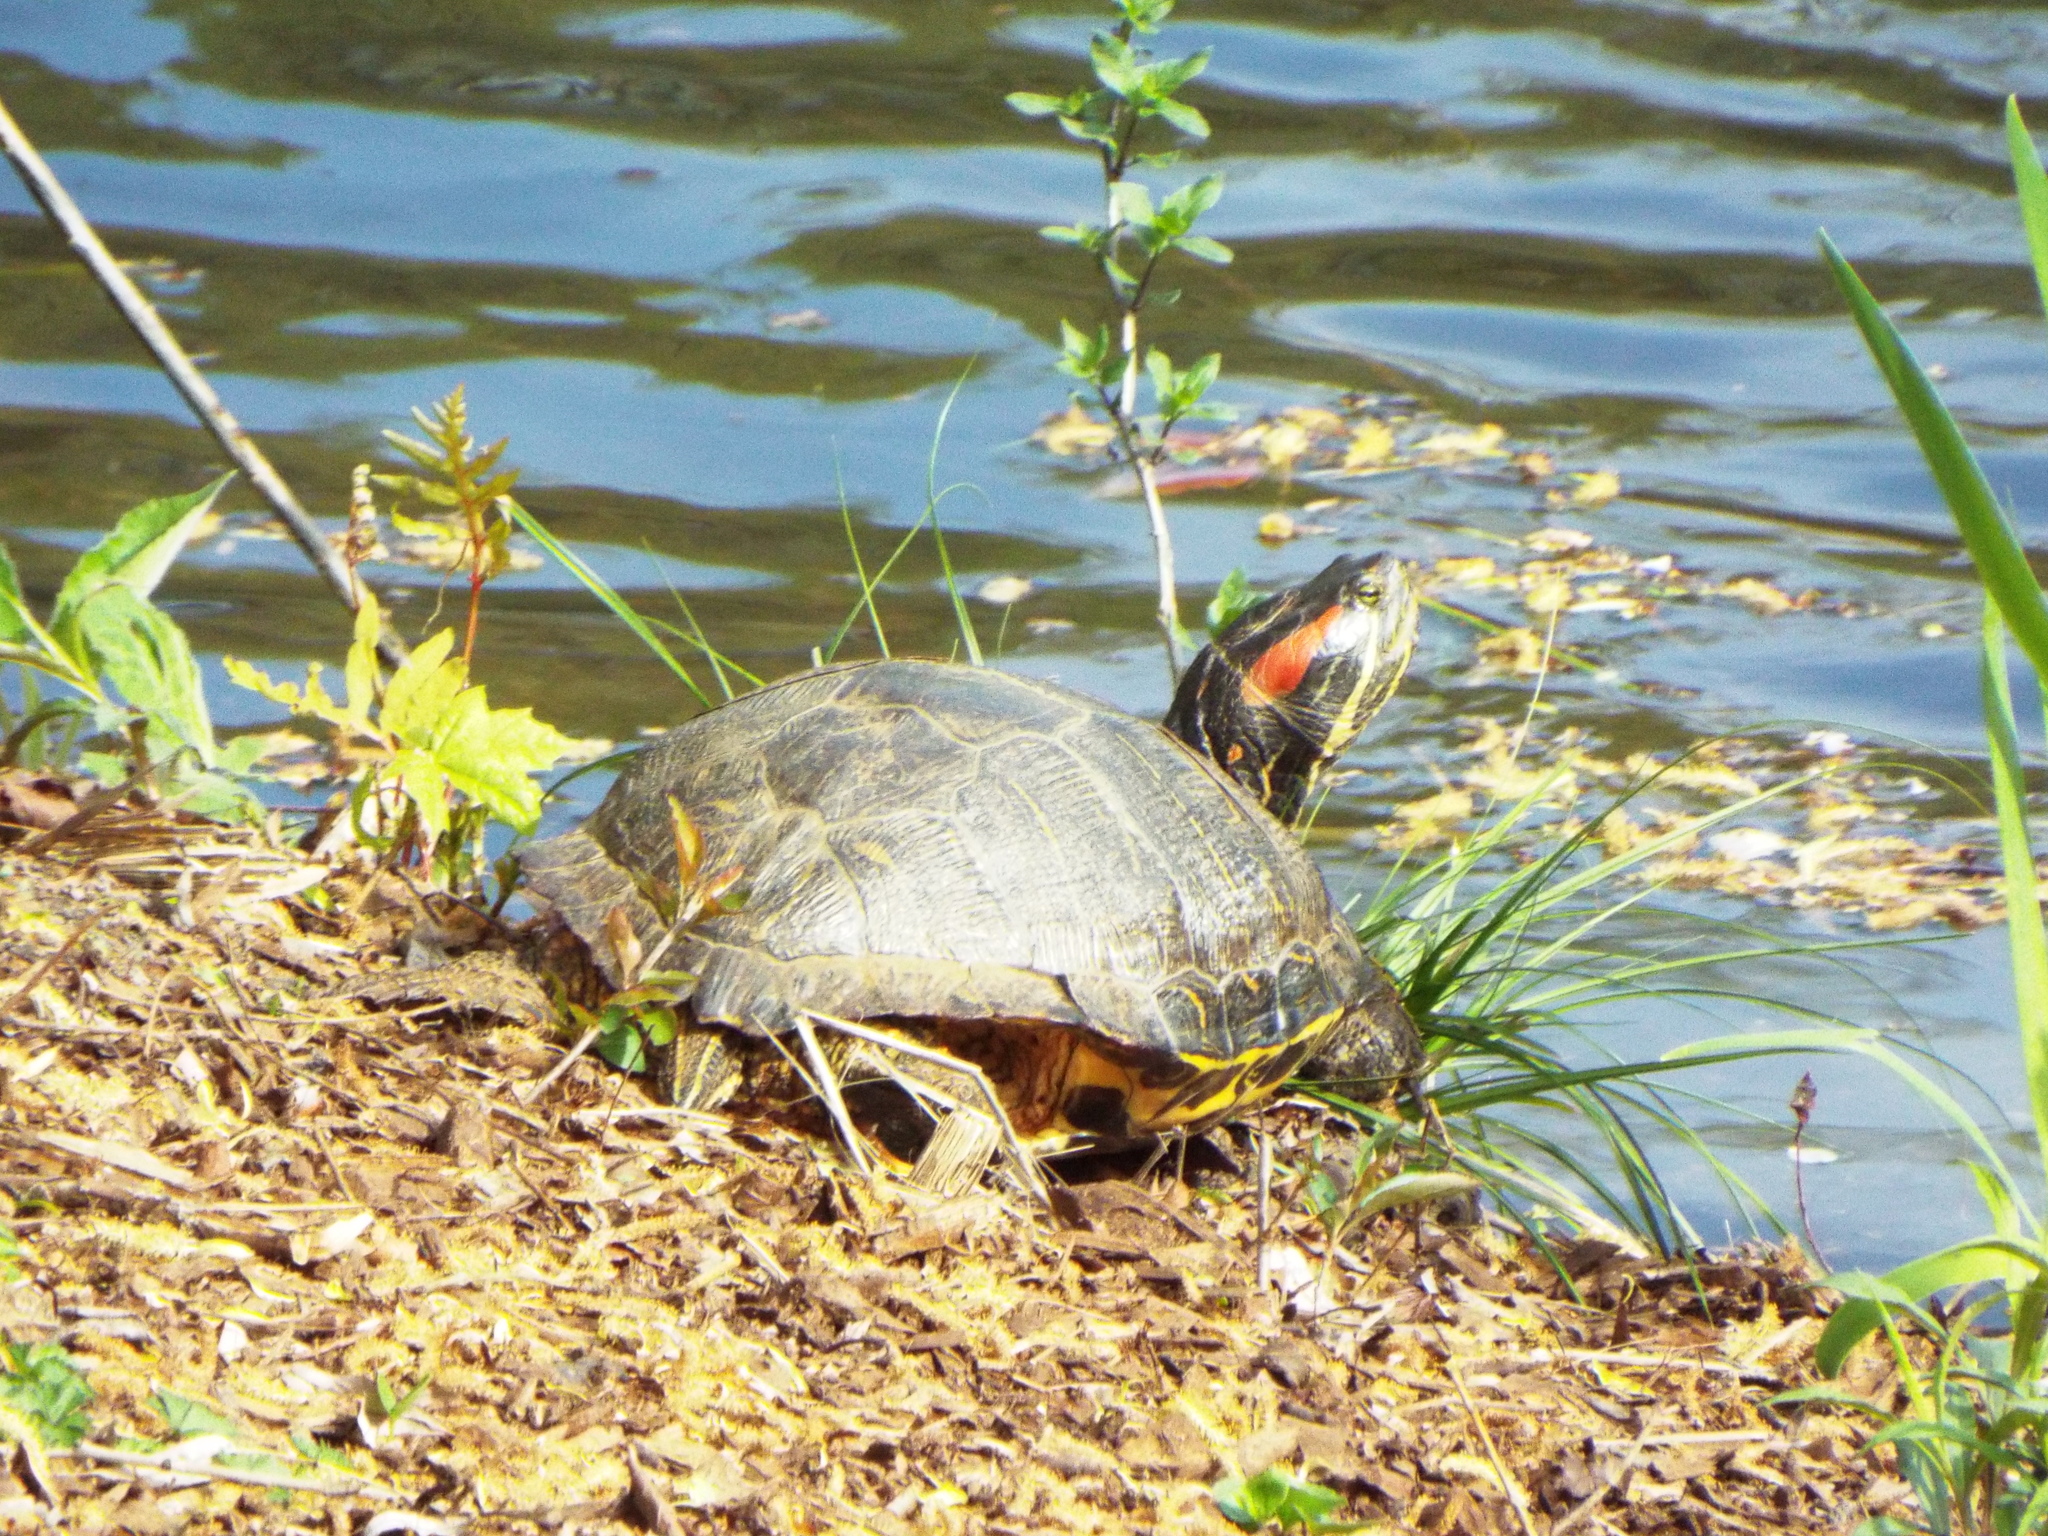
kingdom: Animalia
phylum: Chordata
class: Testudines
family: Emydidae
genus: Trachemys
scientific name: Trachemys scripta
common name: Slider
